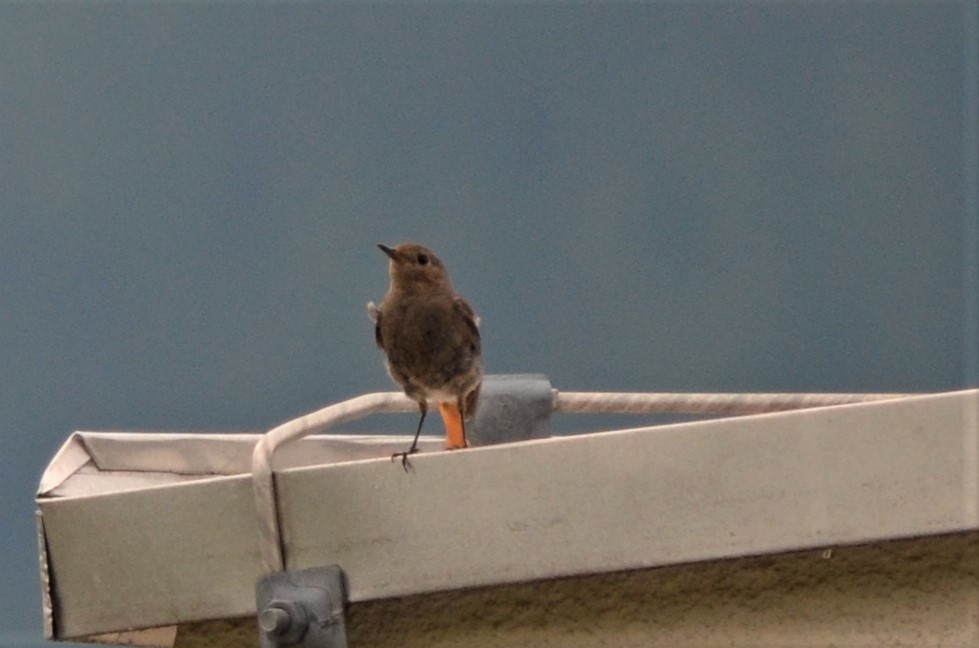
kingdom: Animalia
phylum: Chordata
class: Aves
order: Passeriformes
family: Muscicapidae
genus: Phoenicurus
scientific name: Phoenicurus ochruros
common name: Black redstart
